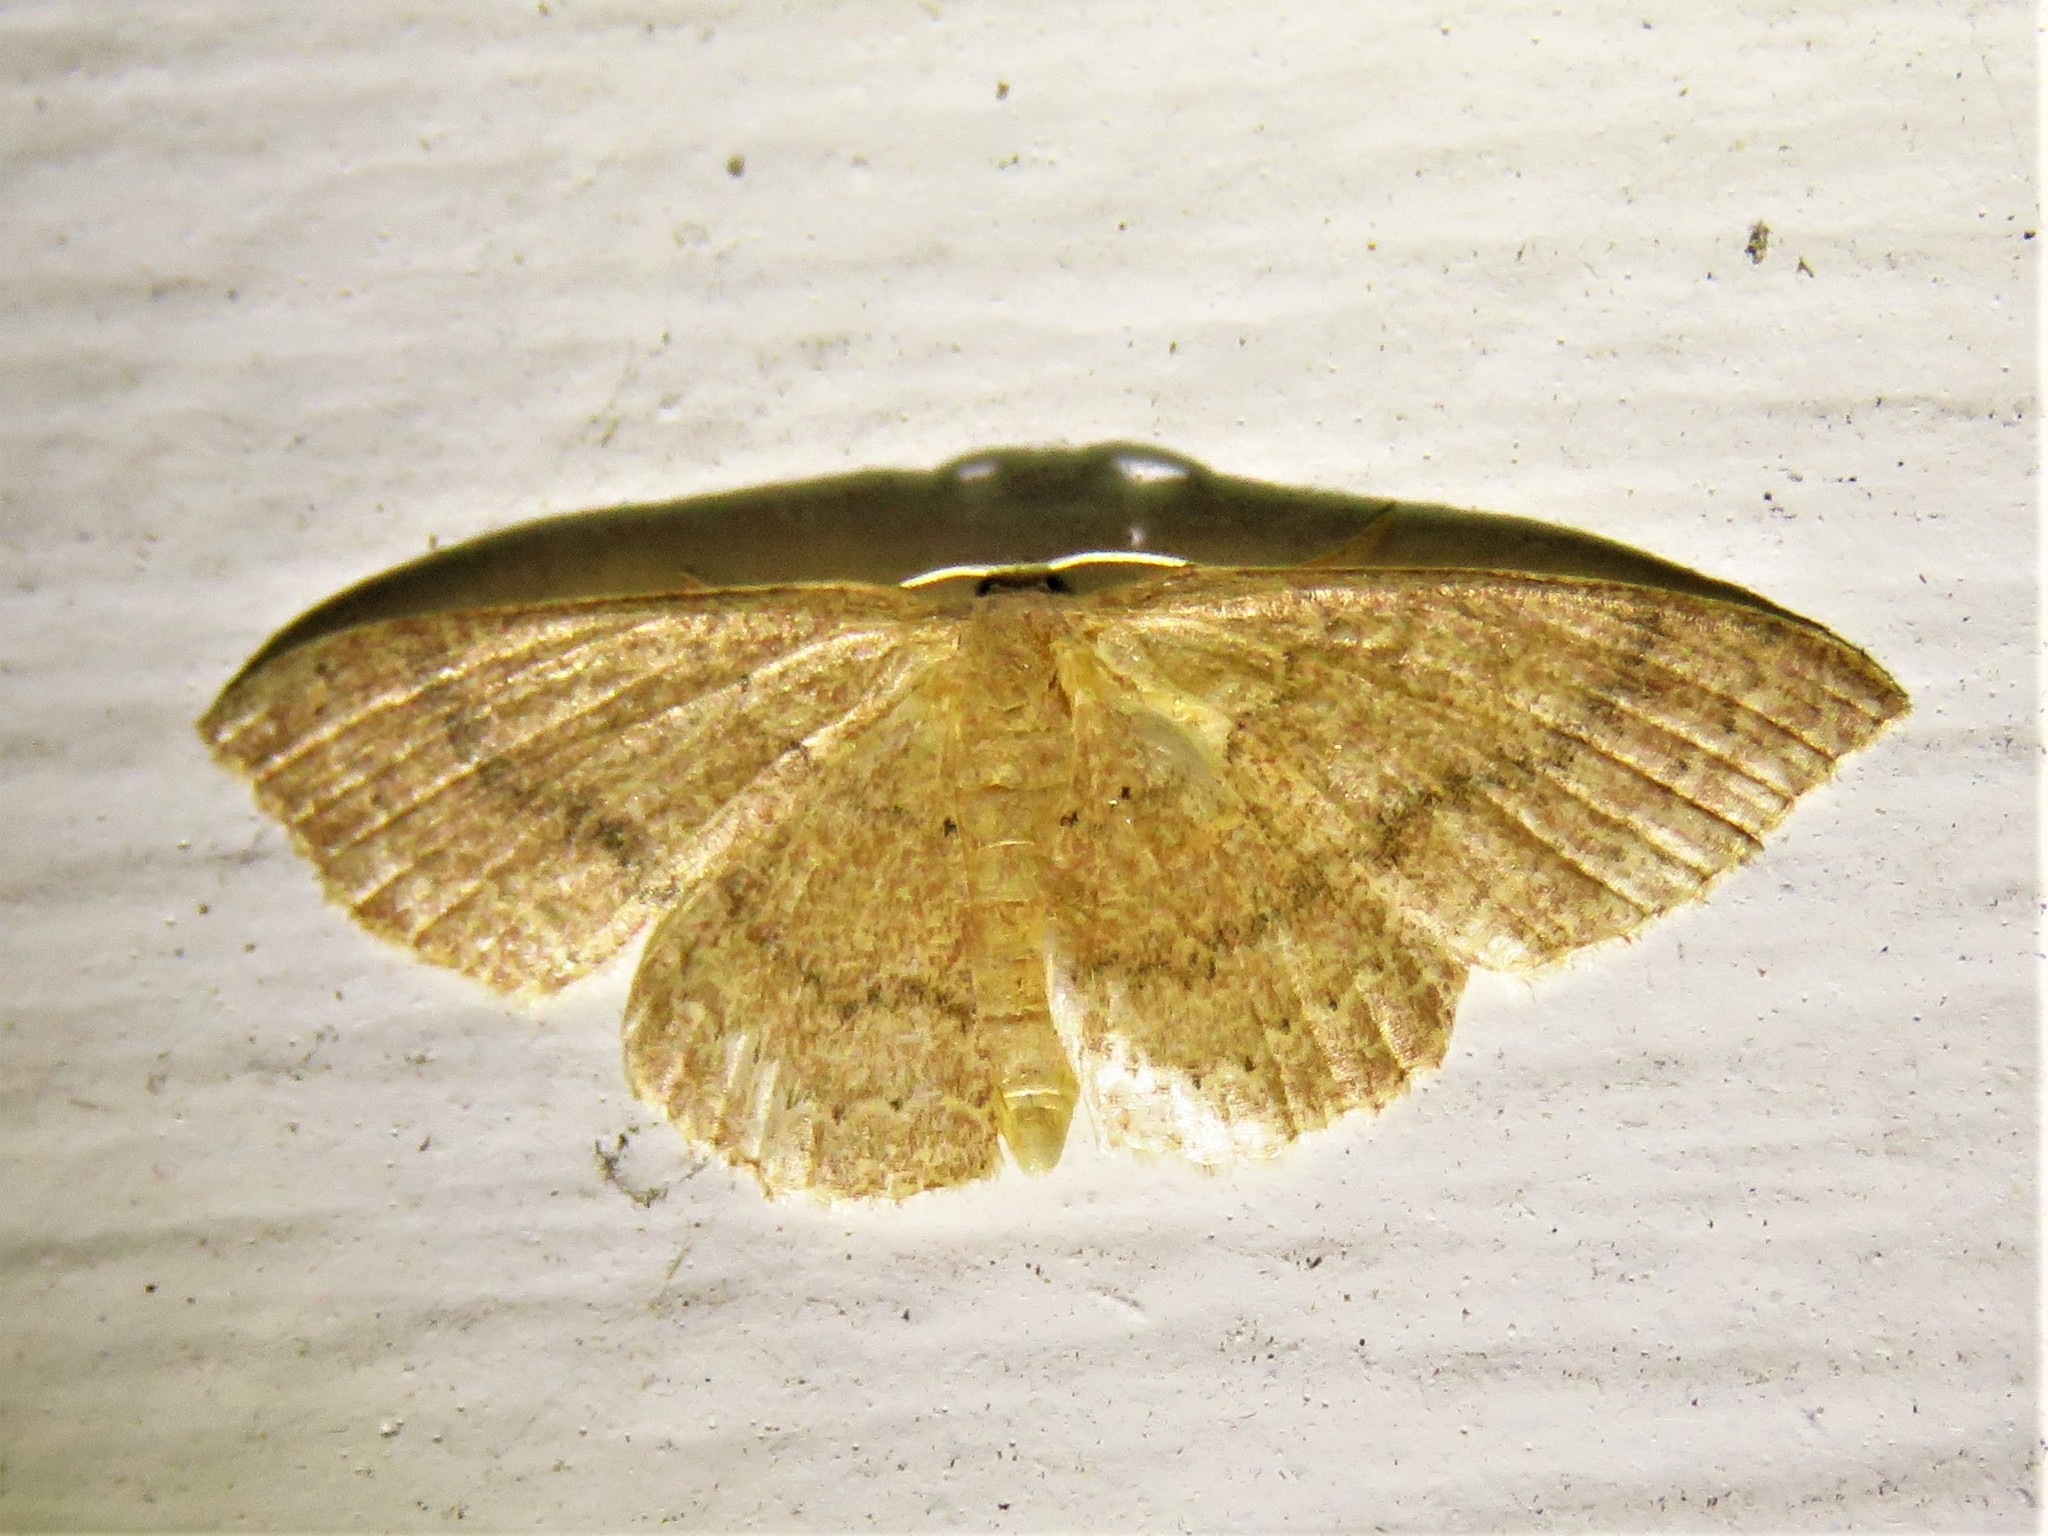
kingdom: Animalia
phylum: Arthropoda
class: Insecta
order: Lepidoptera
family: Geometridae
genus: Pleuroprucha
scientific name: Pleuroprucha insulsaria
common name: Common tan wave
